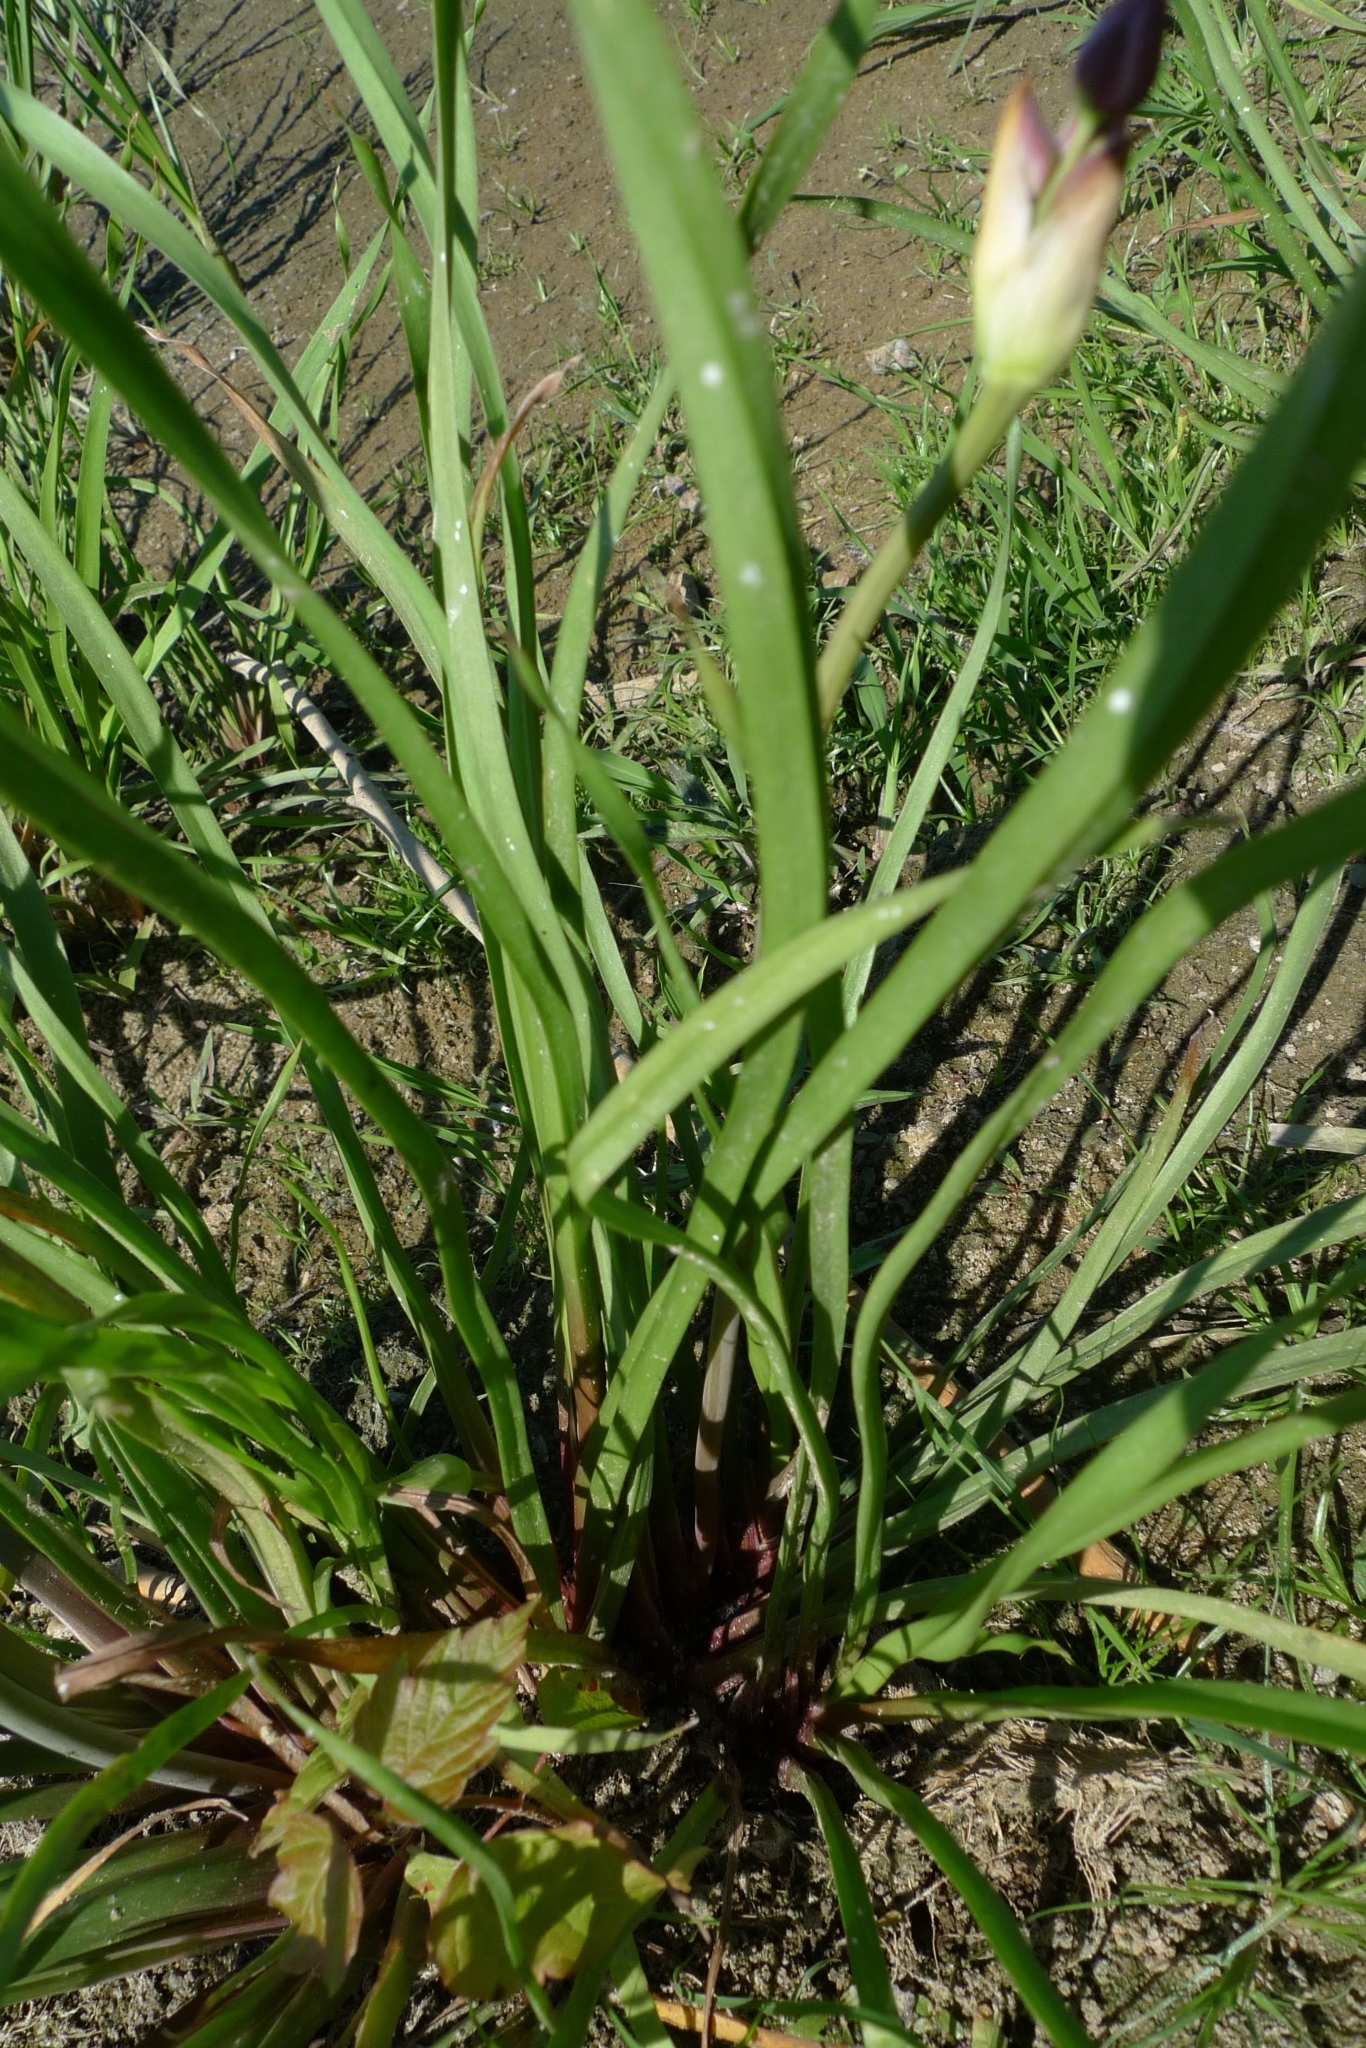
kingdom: Plantae
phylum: Tracheophyta
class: Liliopsida
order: Alismatales
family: Butomaceae
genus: Butomus
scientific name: Butomus umbellatus
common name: Flowering-rush
